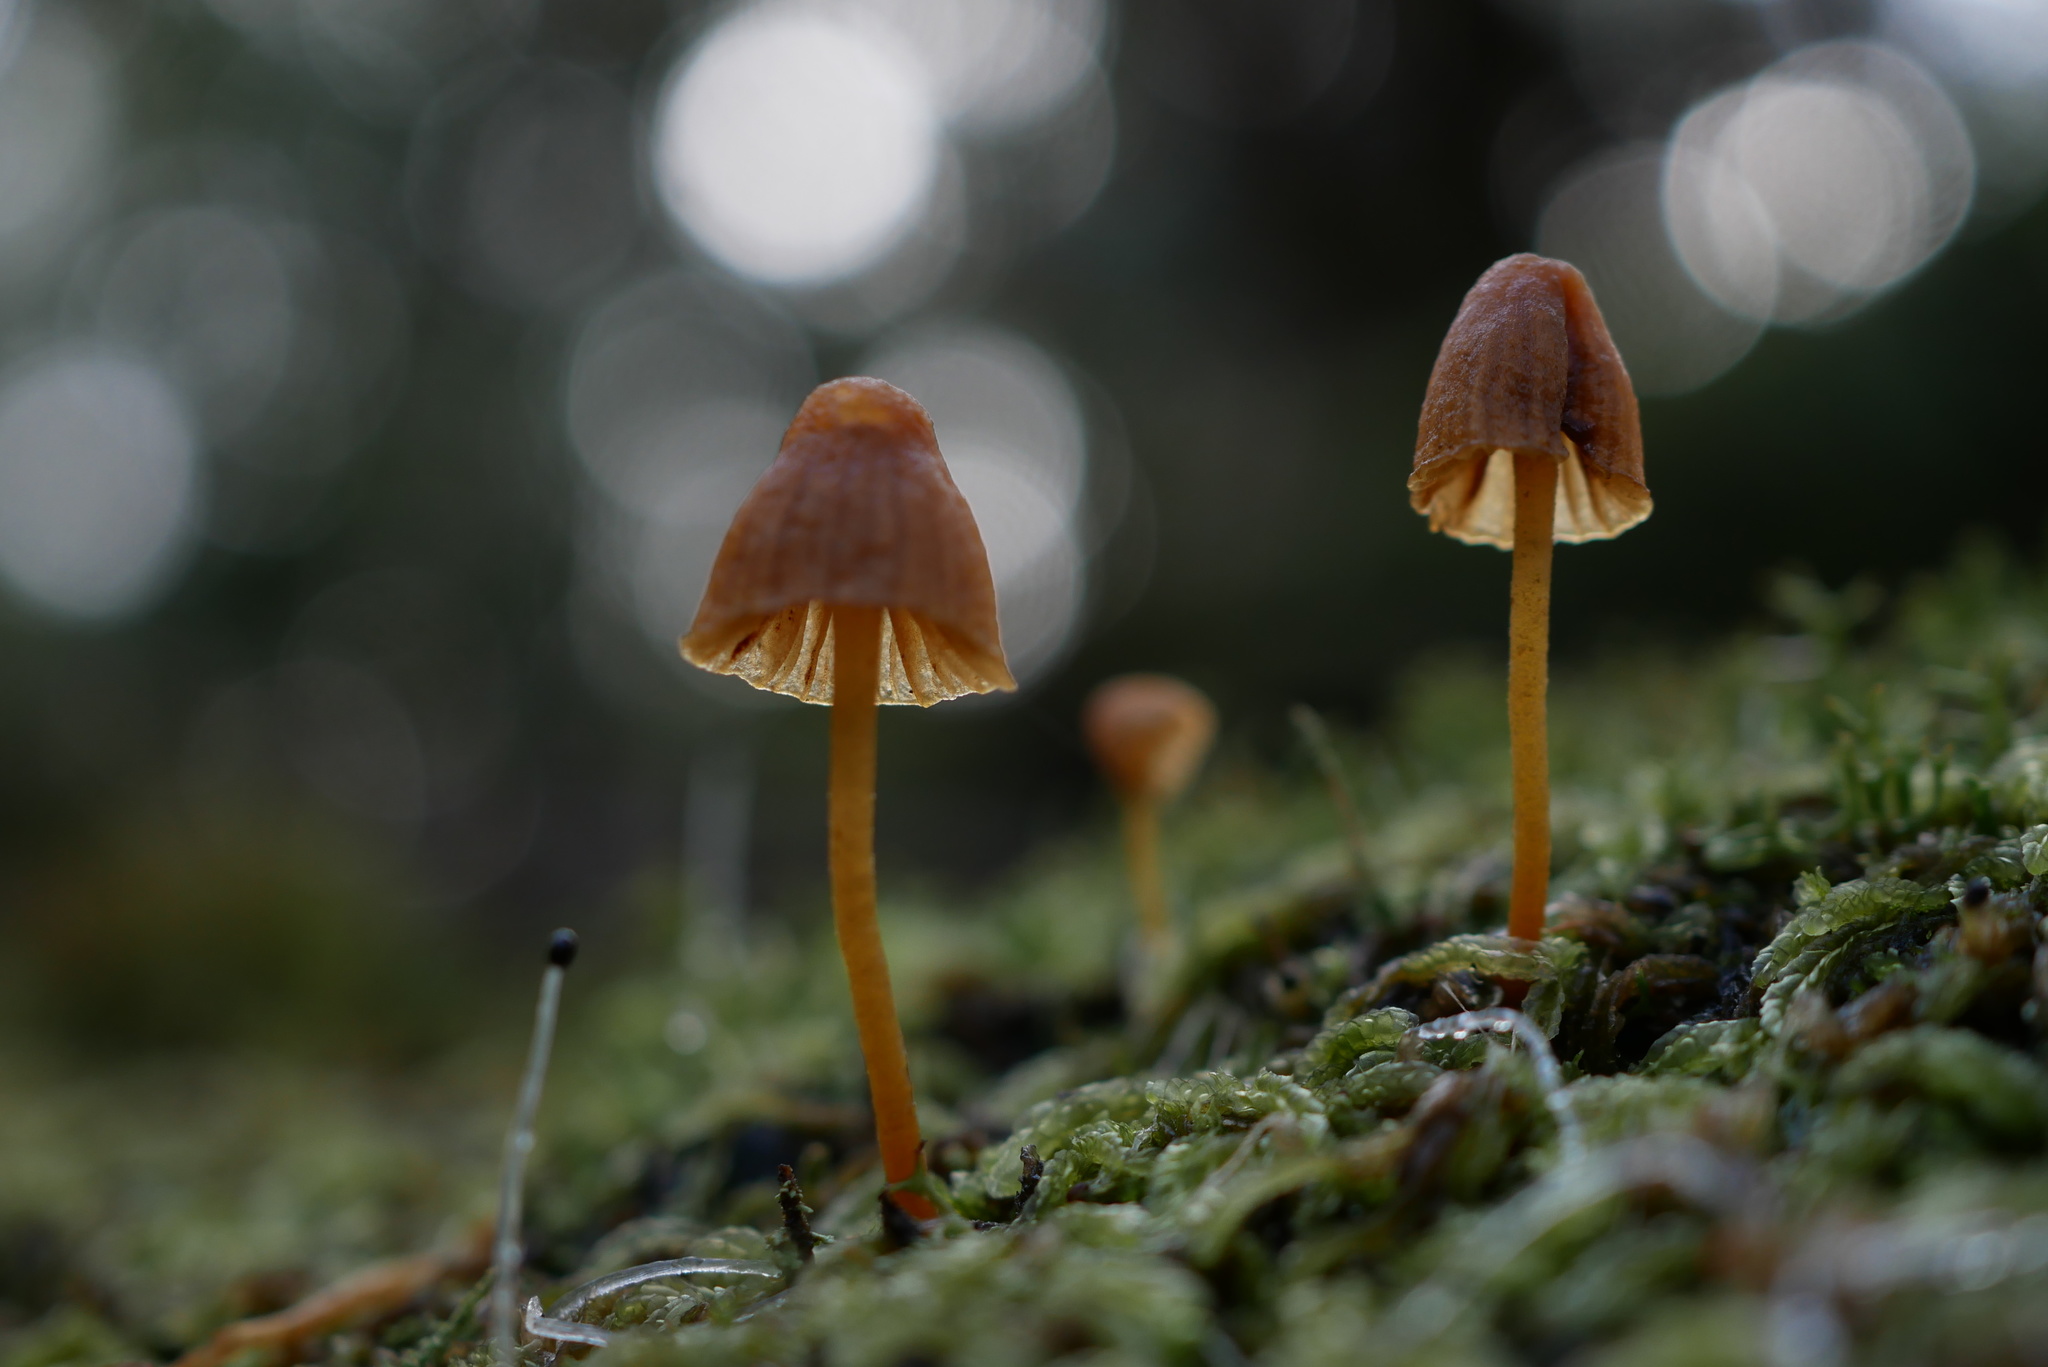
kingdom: Fungi
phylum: Basidiomycota
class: Agaricomycetes
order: Agaricales
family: Hymenogastraceae
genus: Galerina
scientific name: Galerina hypnorum
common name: Moss bell
